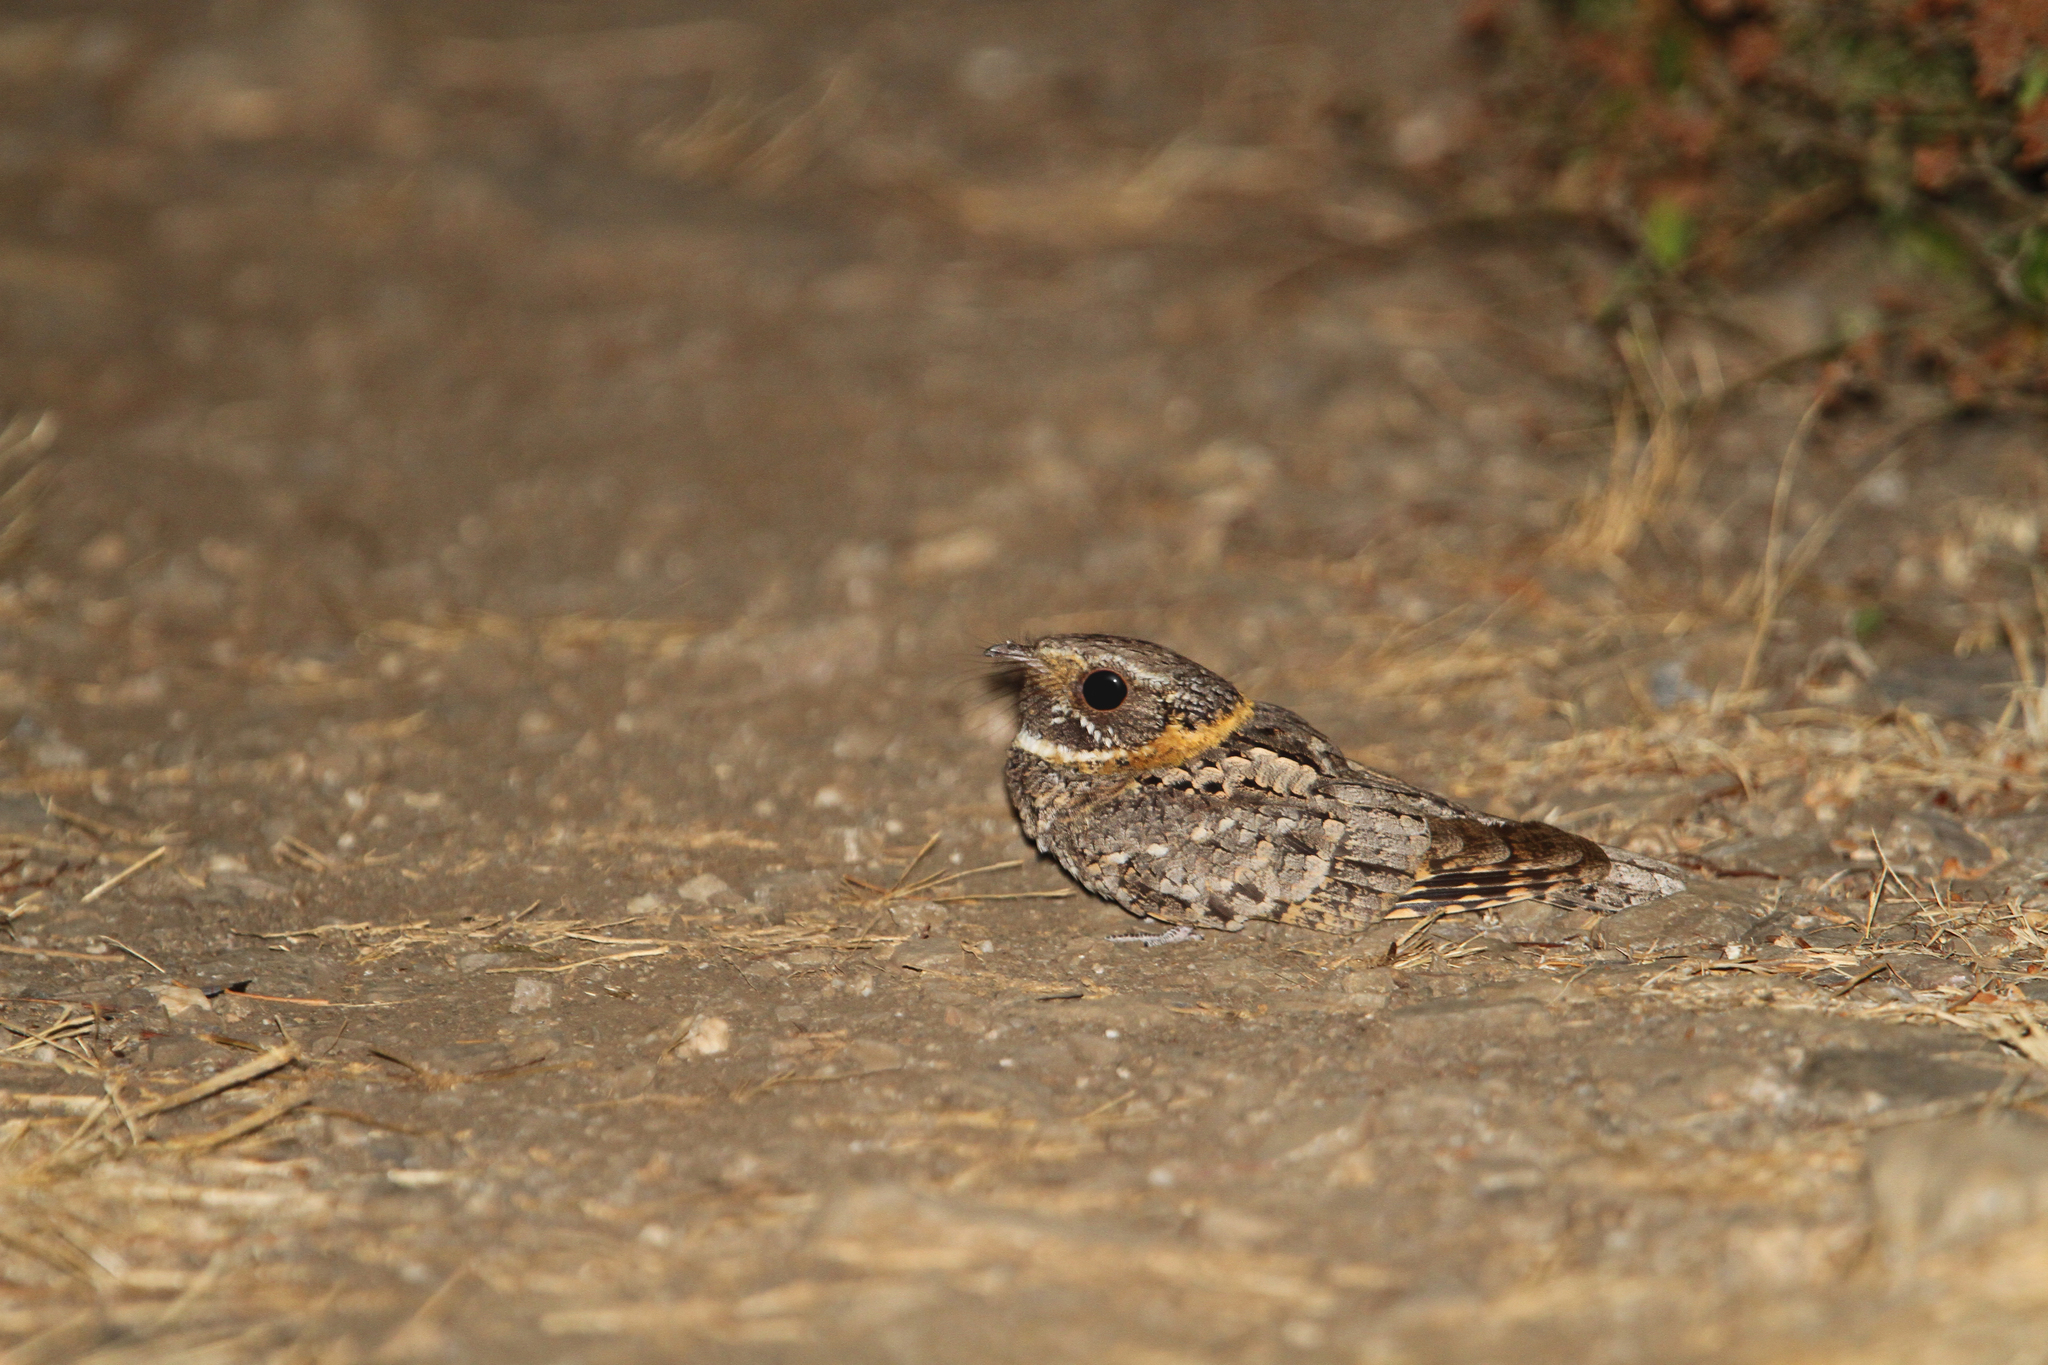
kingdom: Animalia
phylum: Chordata
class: Aves
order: Caprimulgiformes
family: Caprimulgidae
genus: Antrostomus
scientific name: Antrostomus ridgwayi
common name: Buff-collared nightjar
